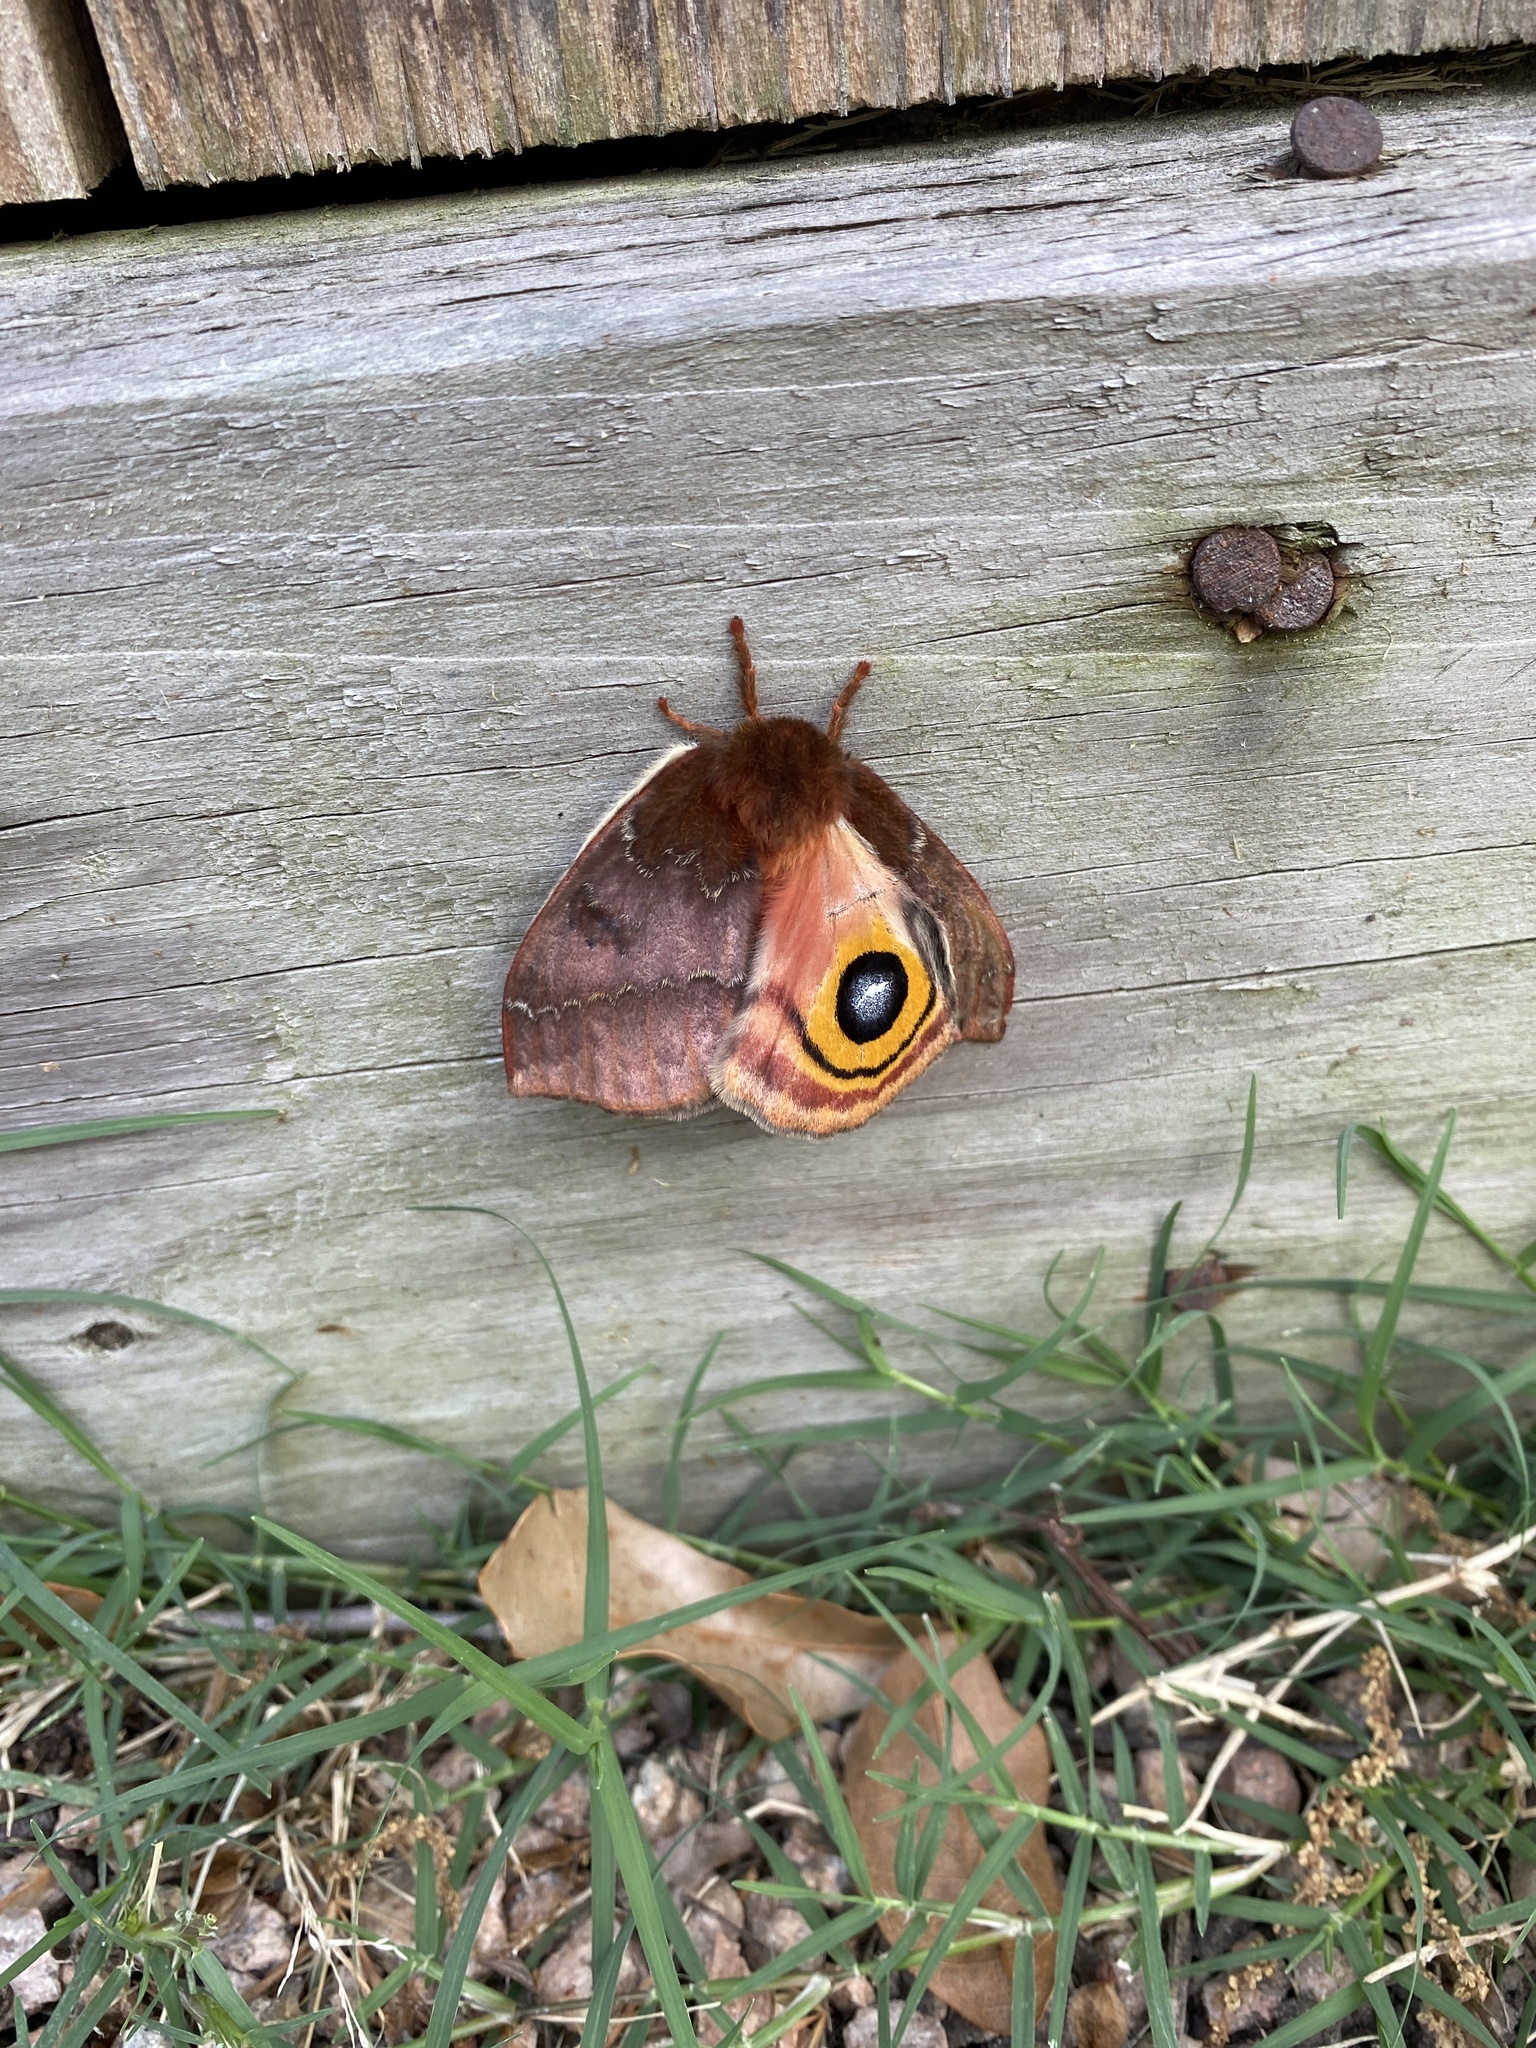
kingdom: Animalia
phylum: Arthropoda
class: Insecta
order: Lepidoptera
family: Saturniidae
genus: Automeris
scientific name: Automeris io
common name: Io moth
